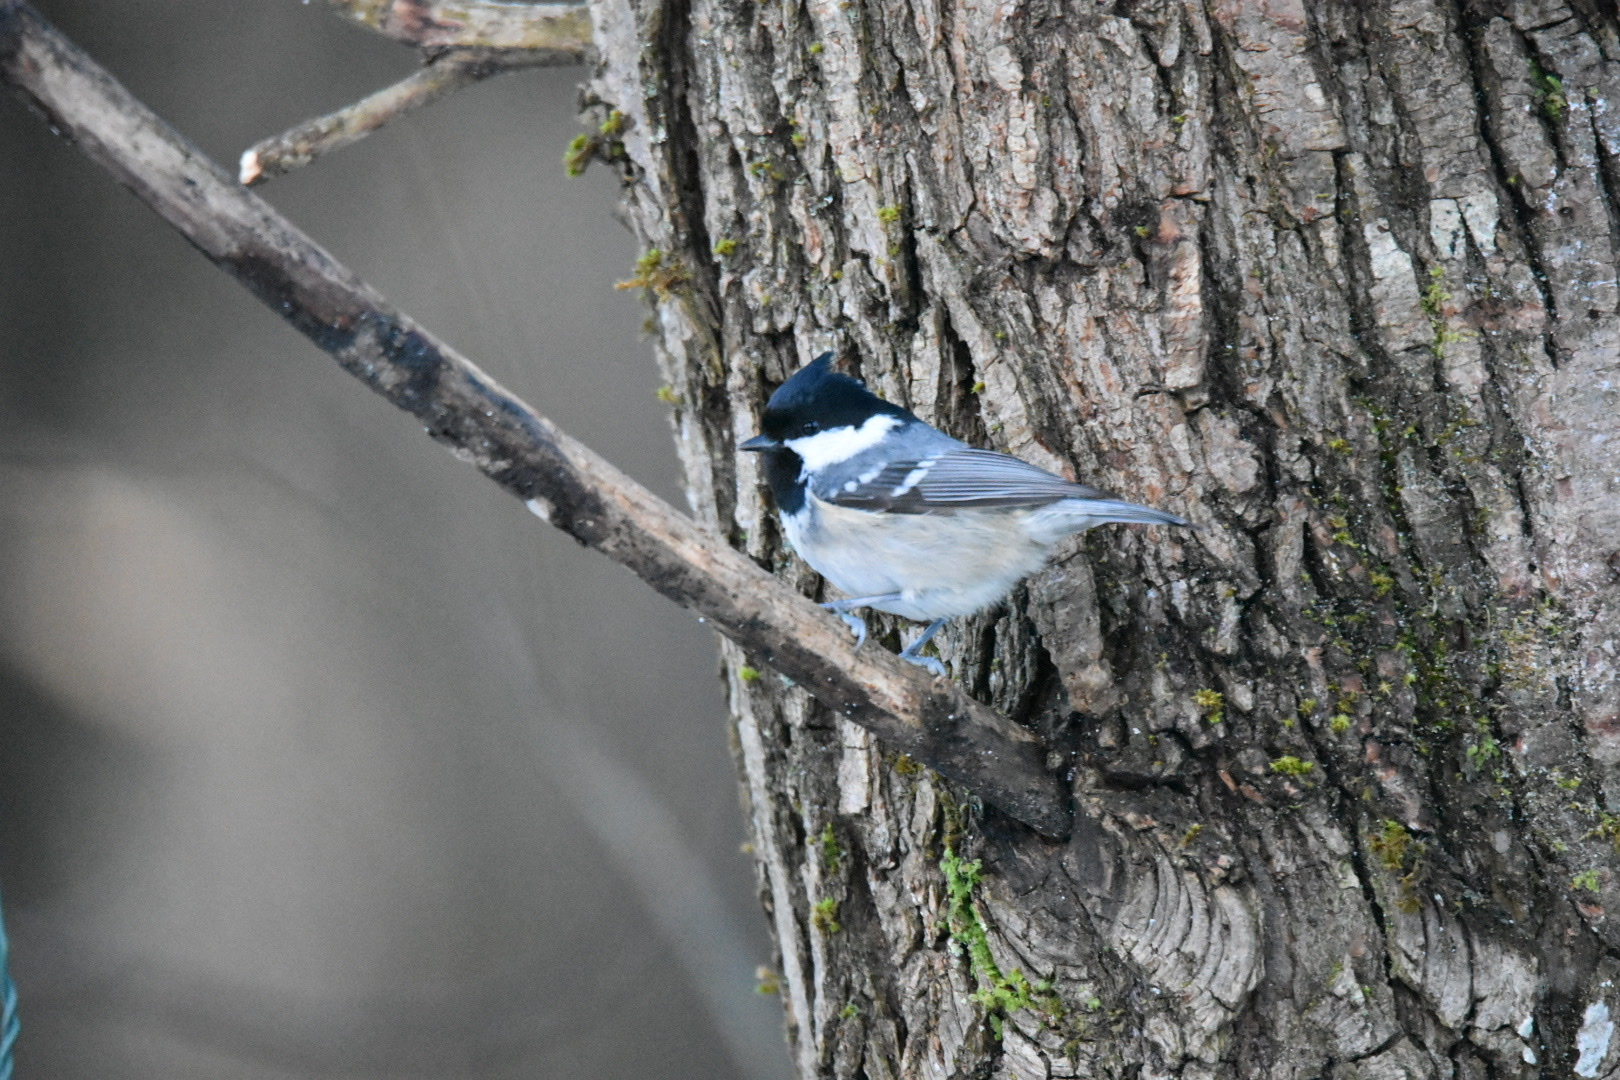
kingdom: Animalia
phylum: Chordata
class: Aves
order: Passeriformes
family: Paridae
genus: Periparus
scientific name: Periparus ater
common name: Coal tit
